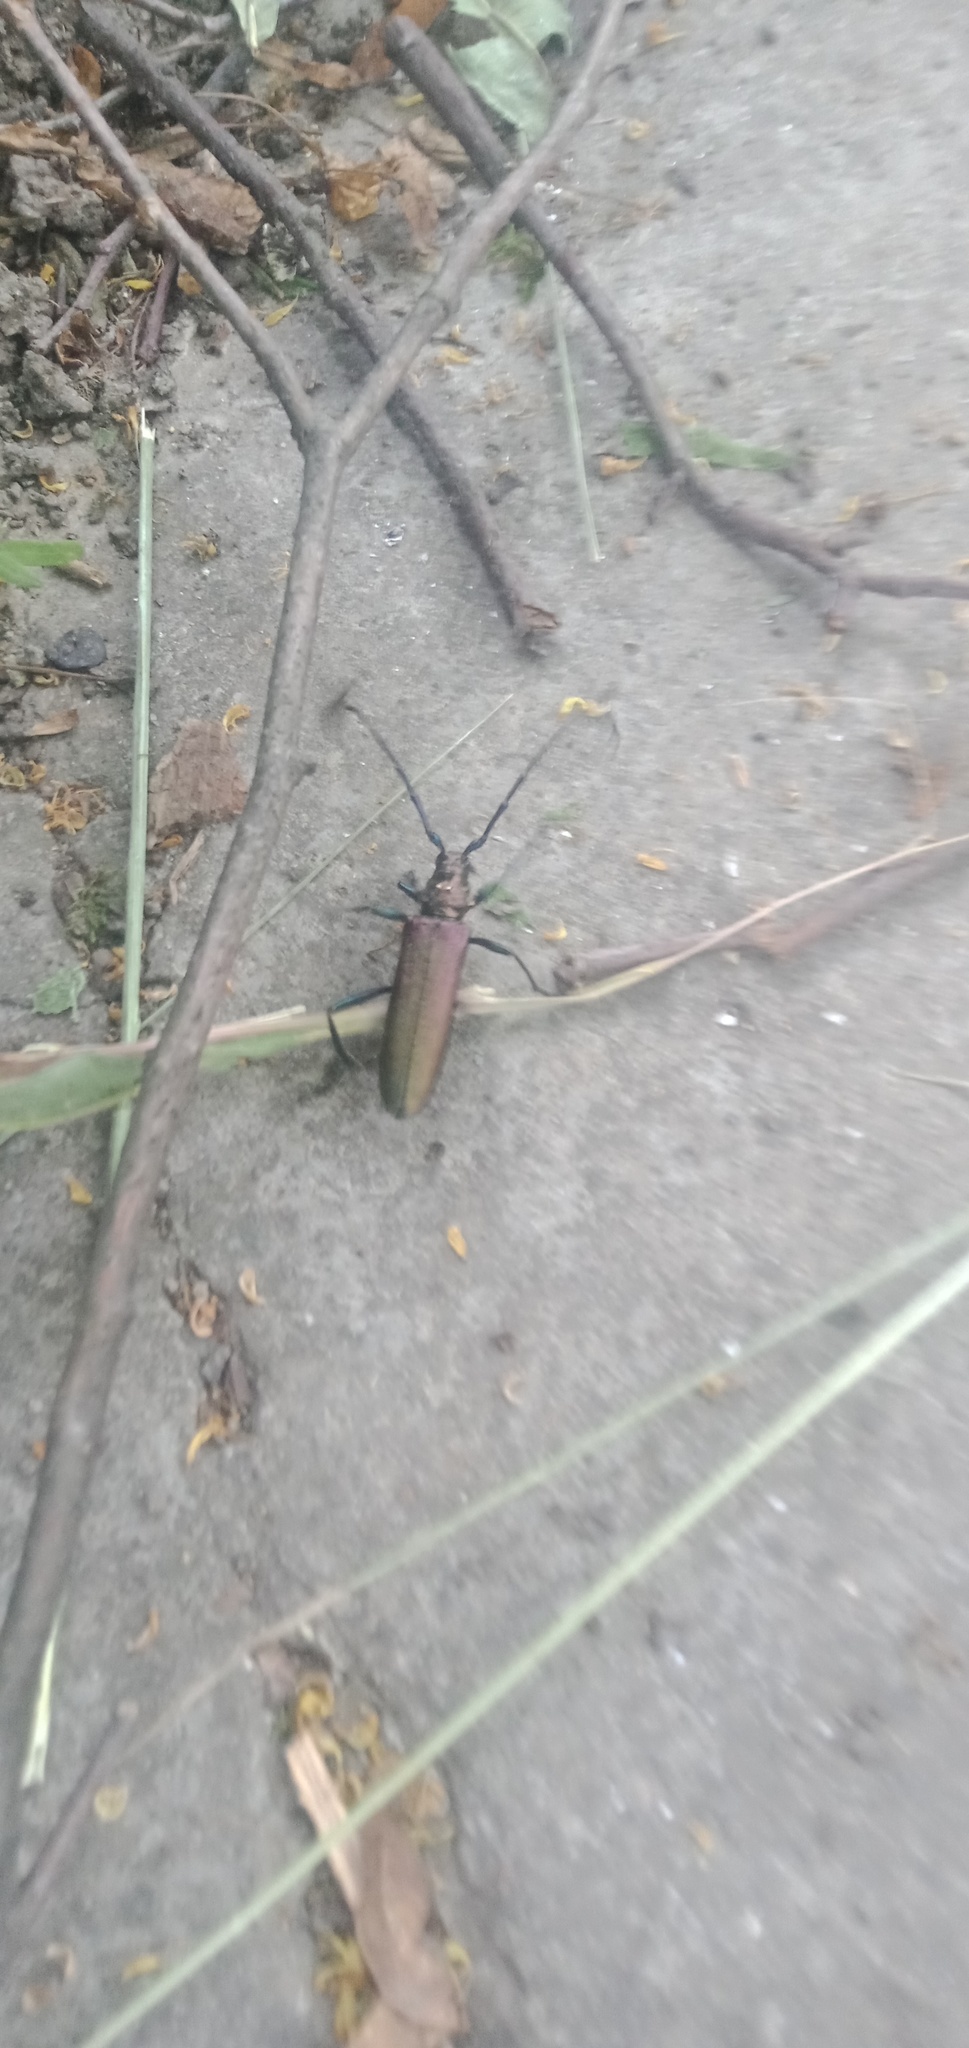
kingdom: Animalia
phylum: Arthropoda
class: Insecta
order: Coleoptera
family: Cerambycidae
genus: Aromia
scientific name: Aromia moschata
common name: Musk beetle
